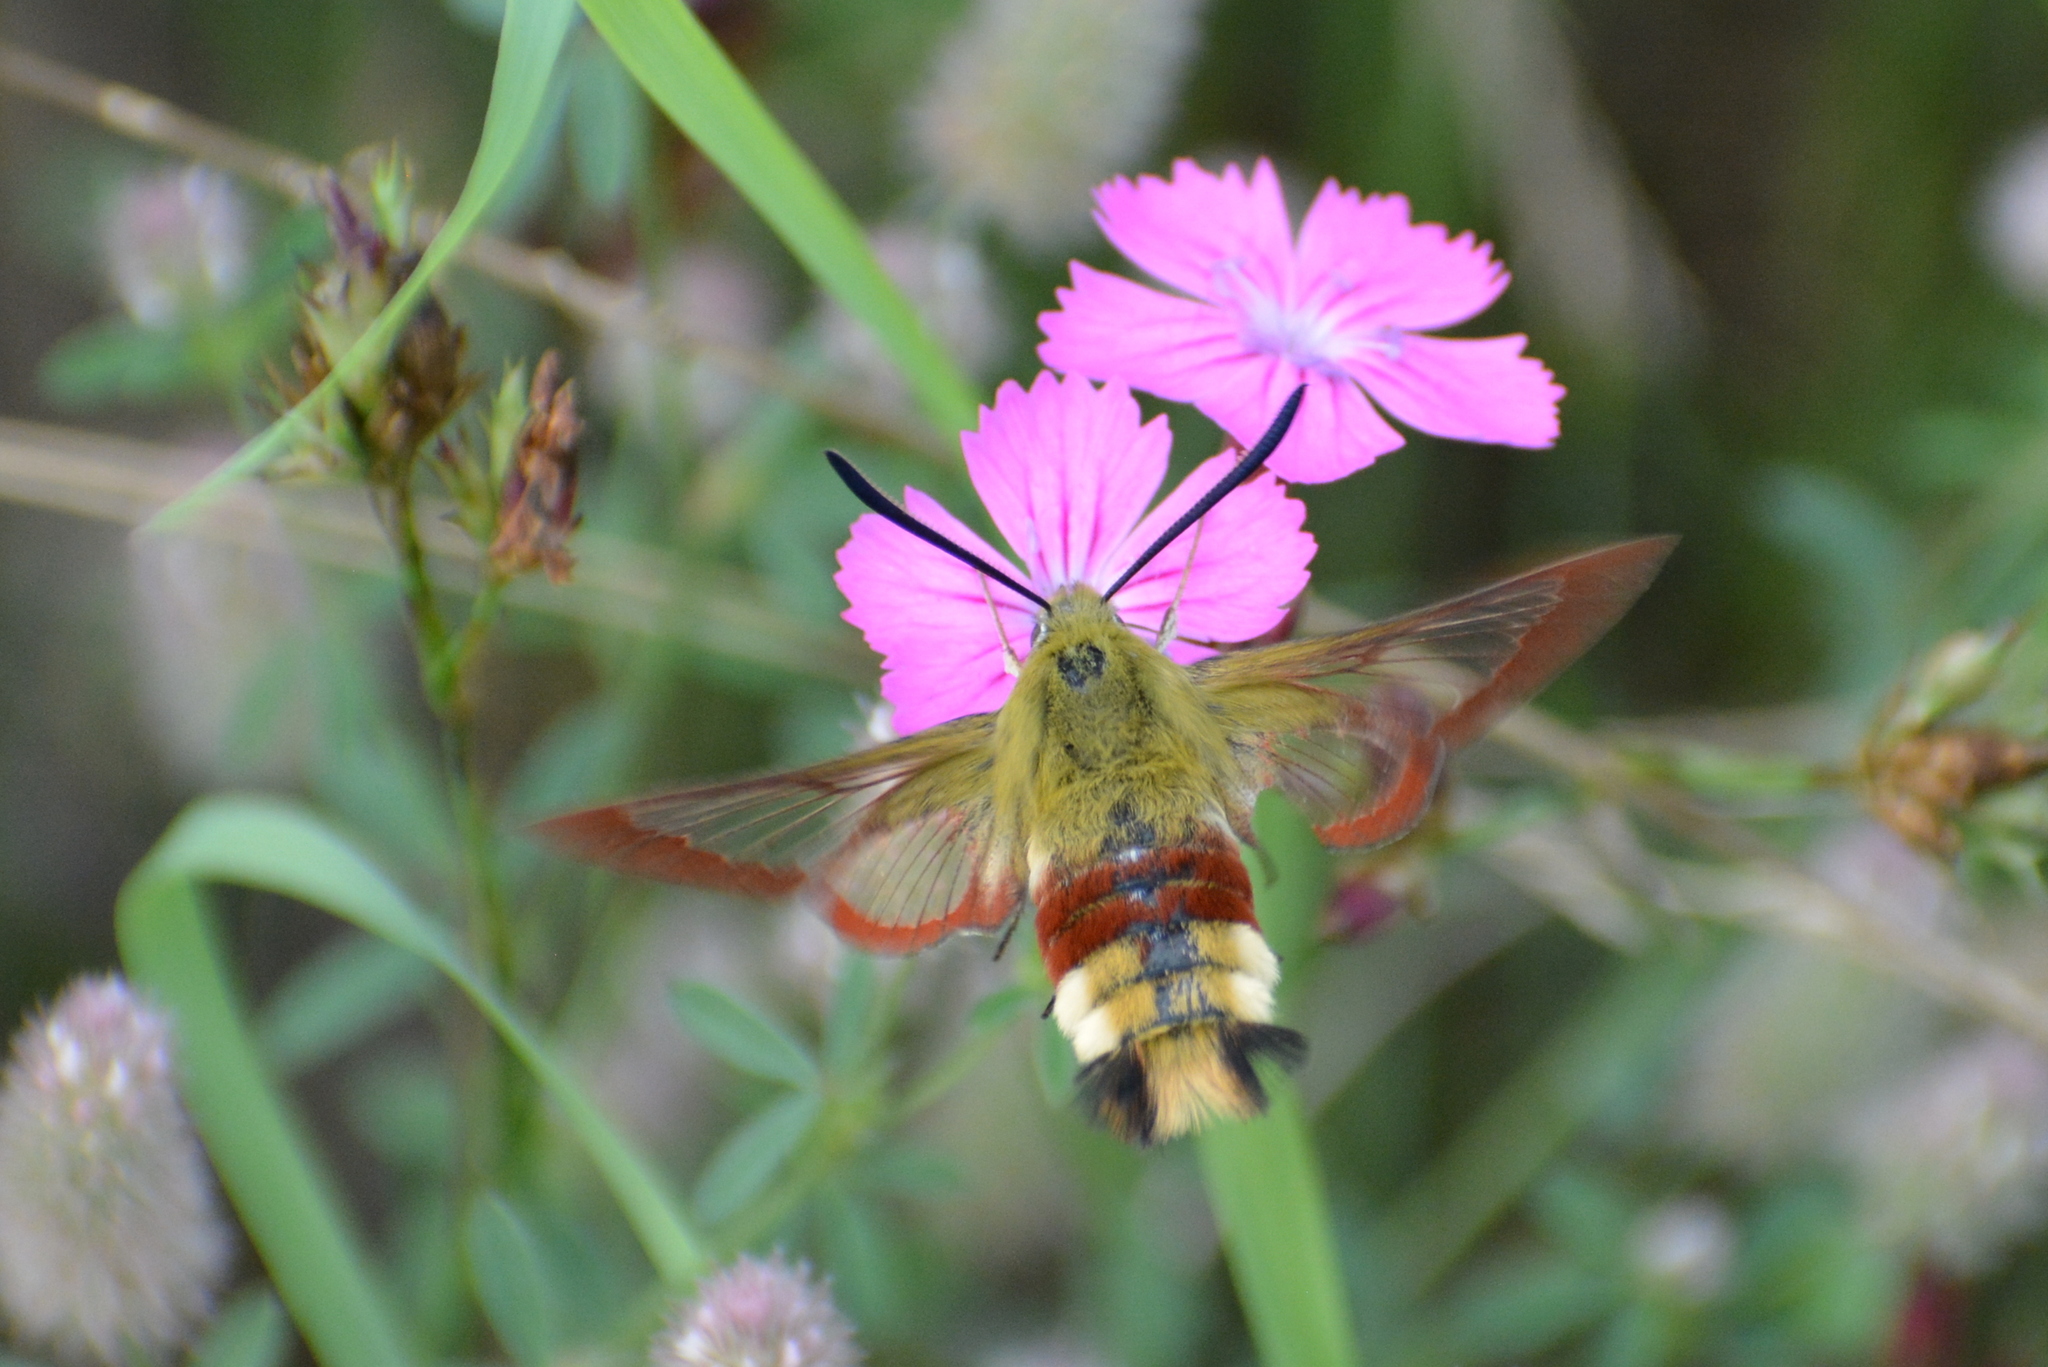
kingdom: Animalia
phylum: Arthropoda
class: Insecta
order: Lepidoptera
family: Sphingidae
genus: Hemaris
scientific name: Hemaris fuciformis
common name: Broad-bordered bee hawk-moth
